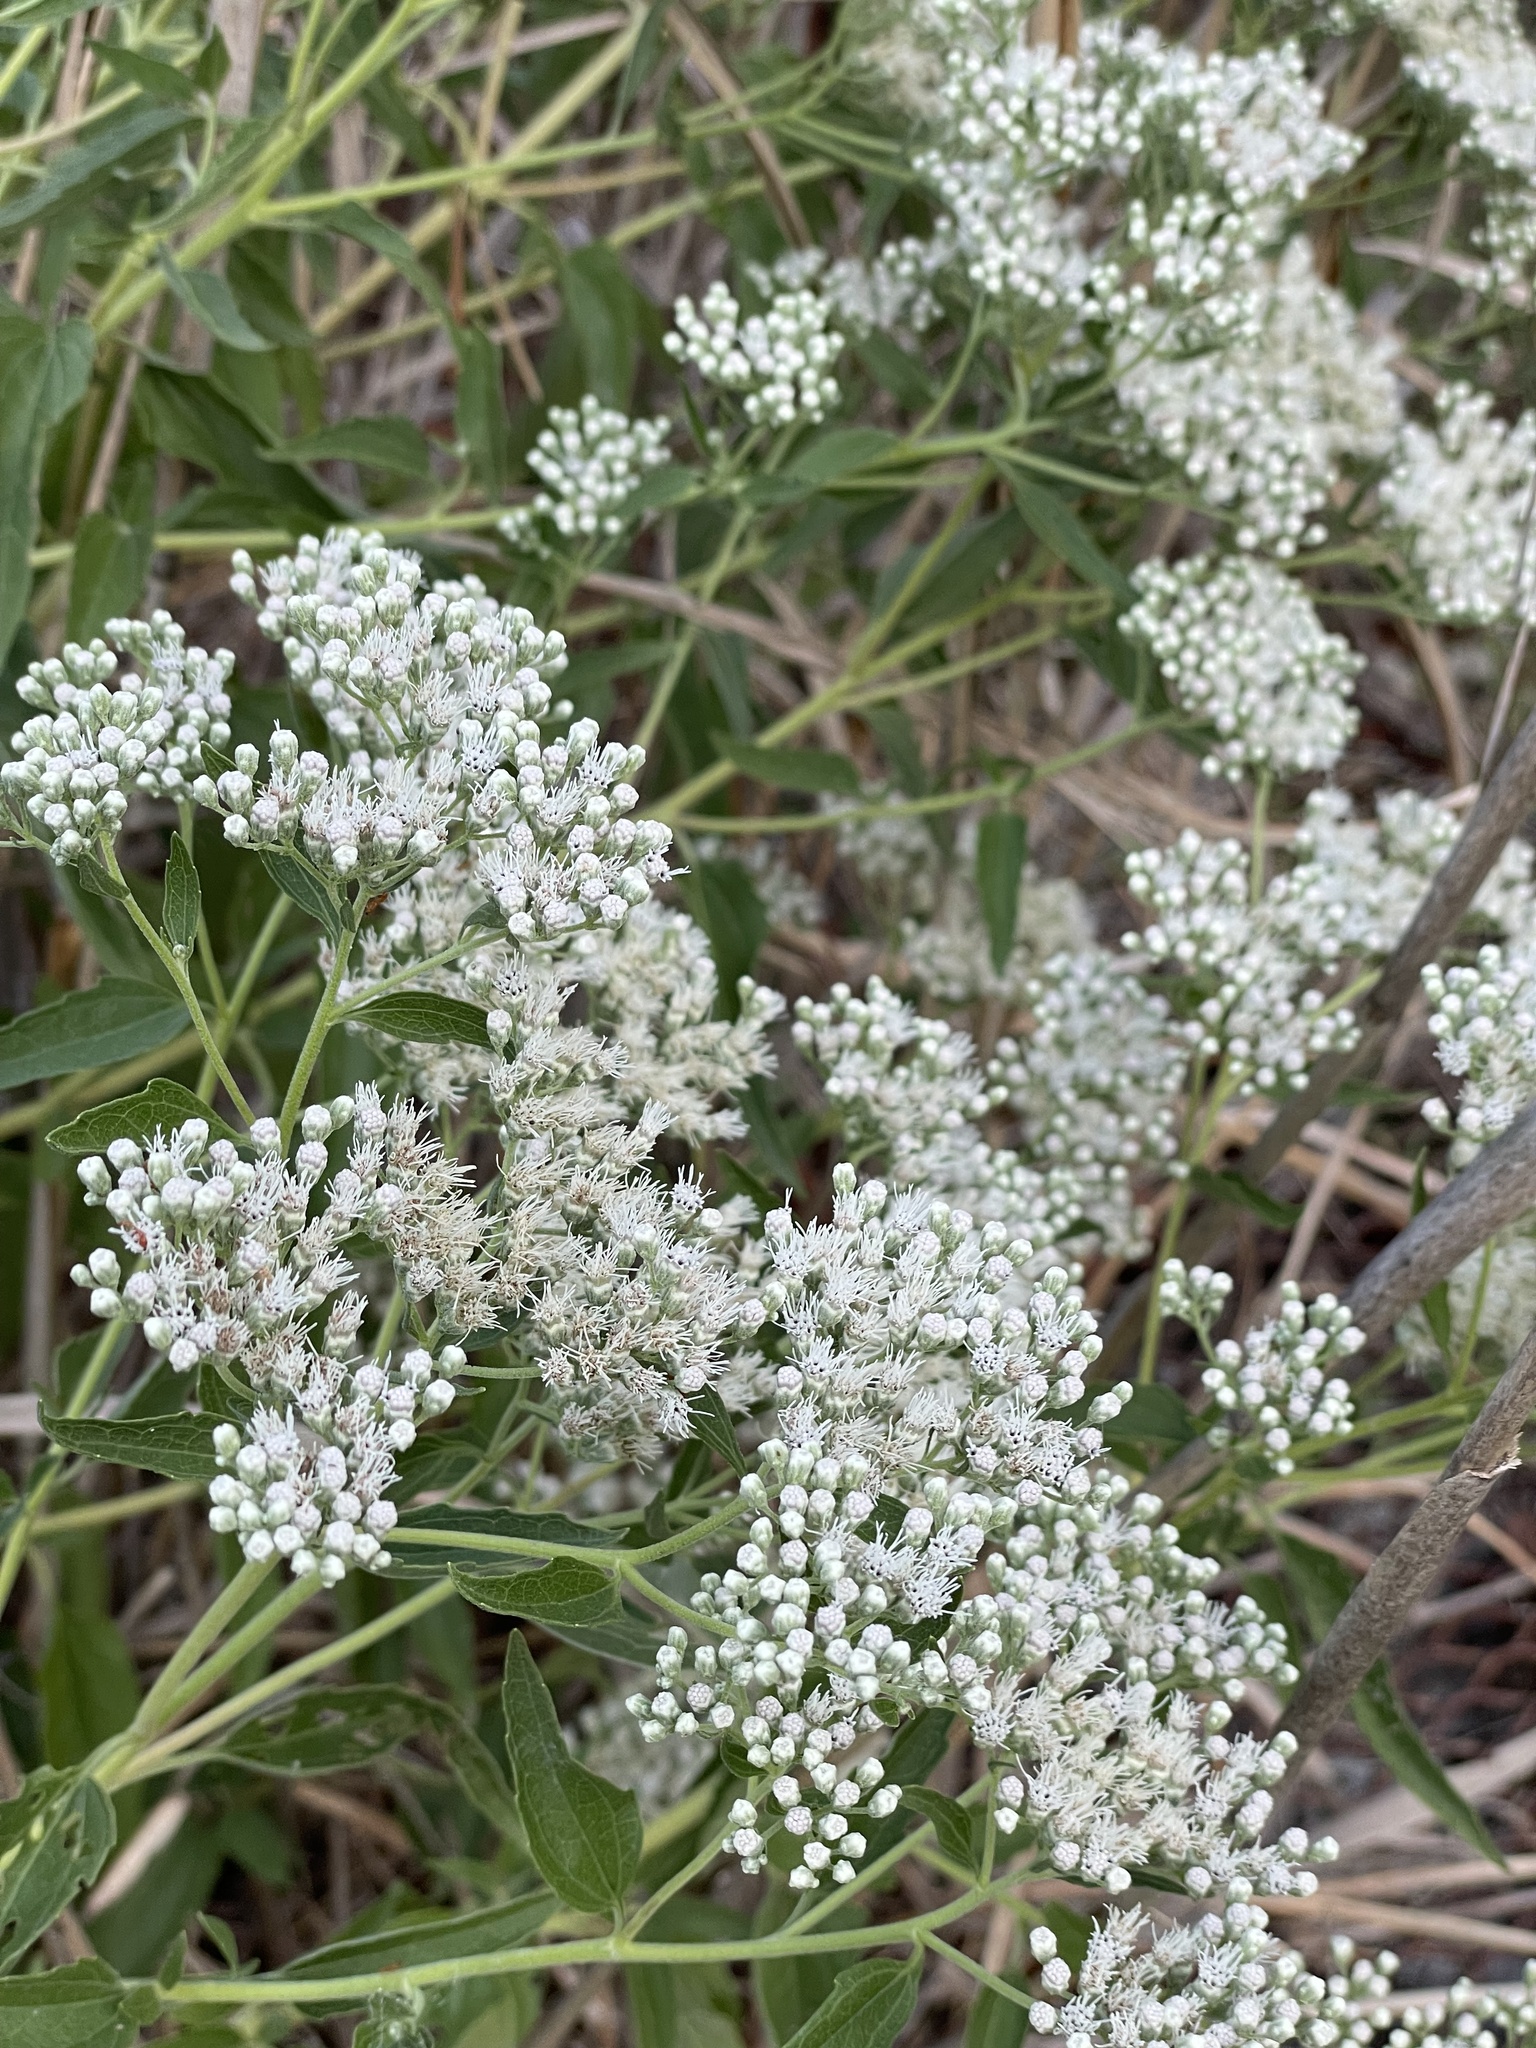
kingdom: Plantae
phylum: Tracheophyta
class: Magnoliopsida
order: Asterales
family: Asteraceae
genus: Eupatorium
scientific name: Eupatorium serotinum
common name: Late boneset
